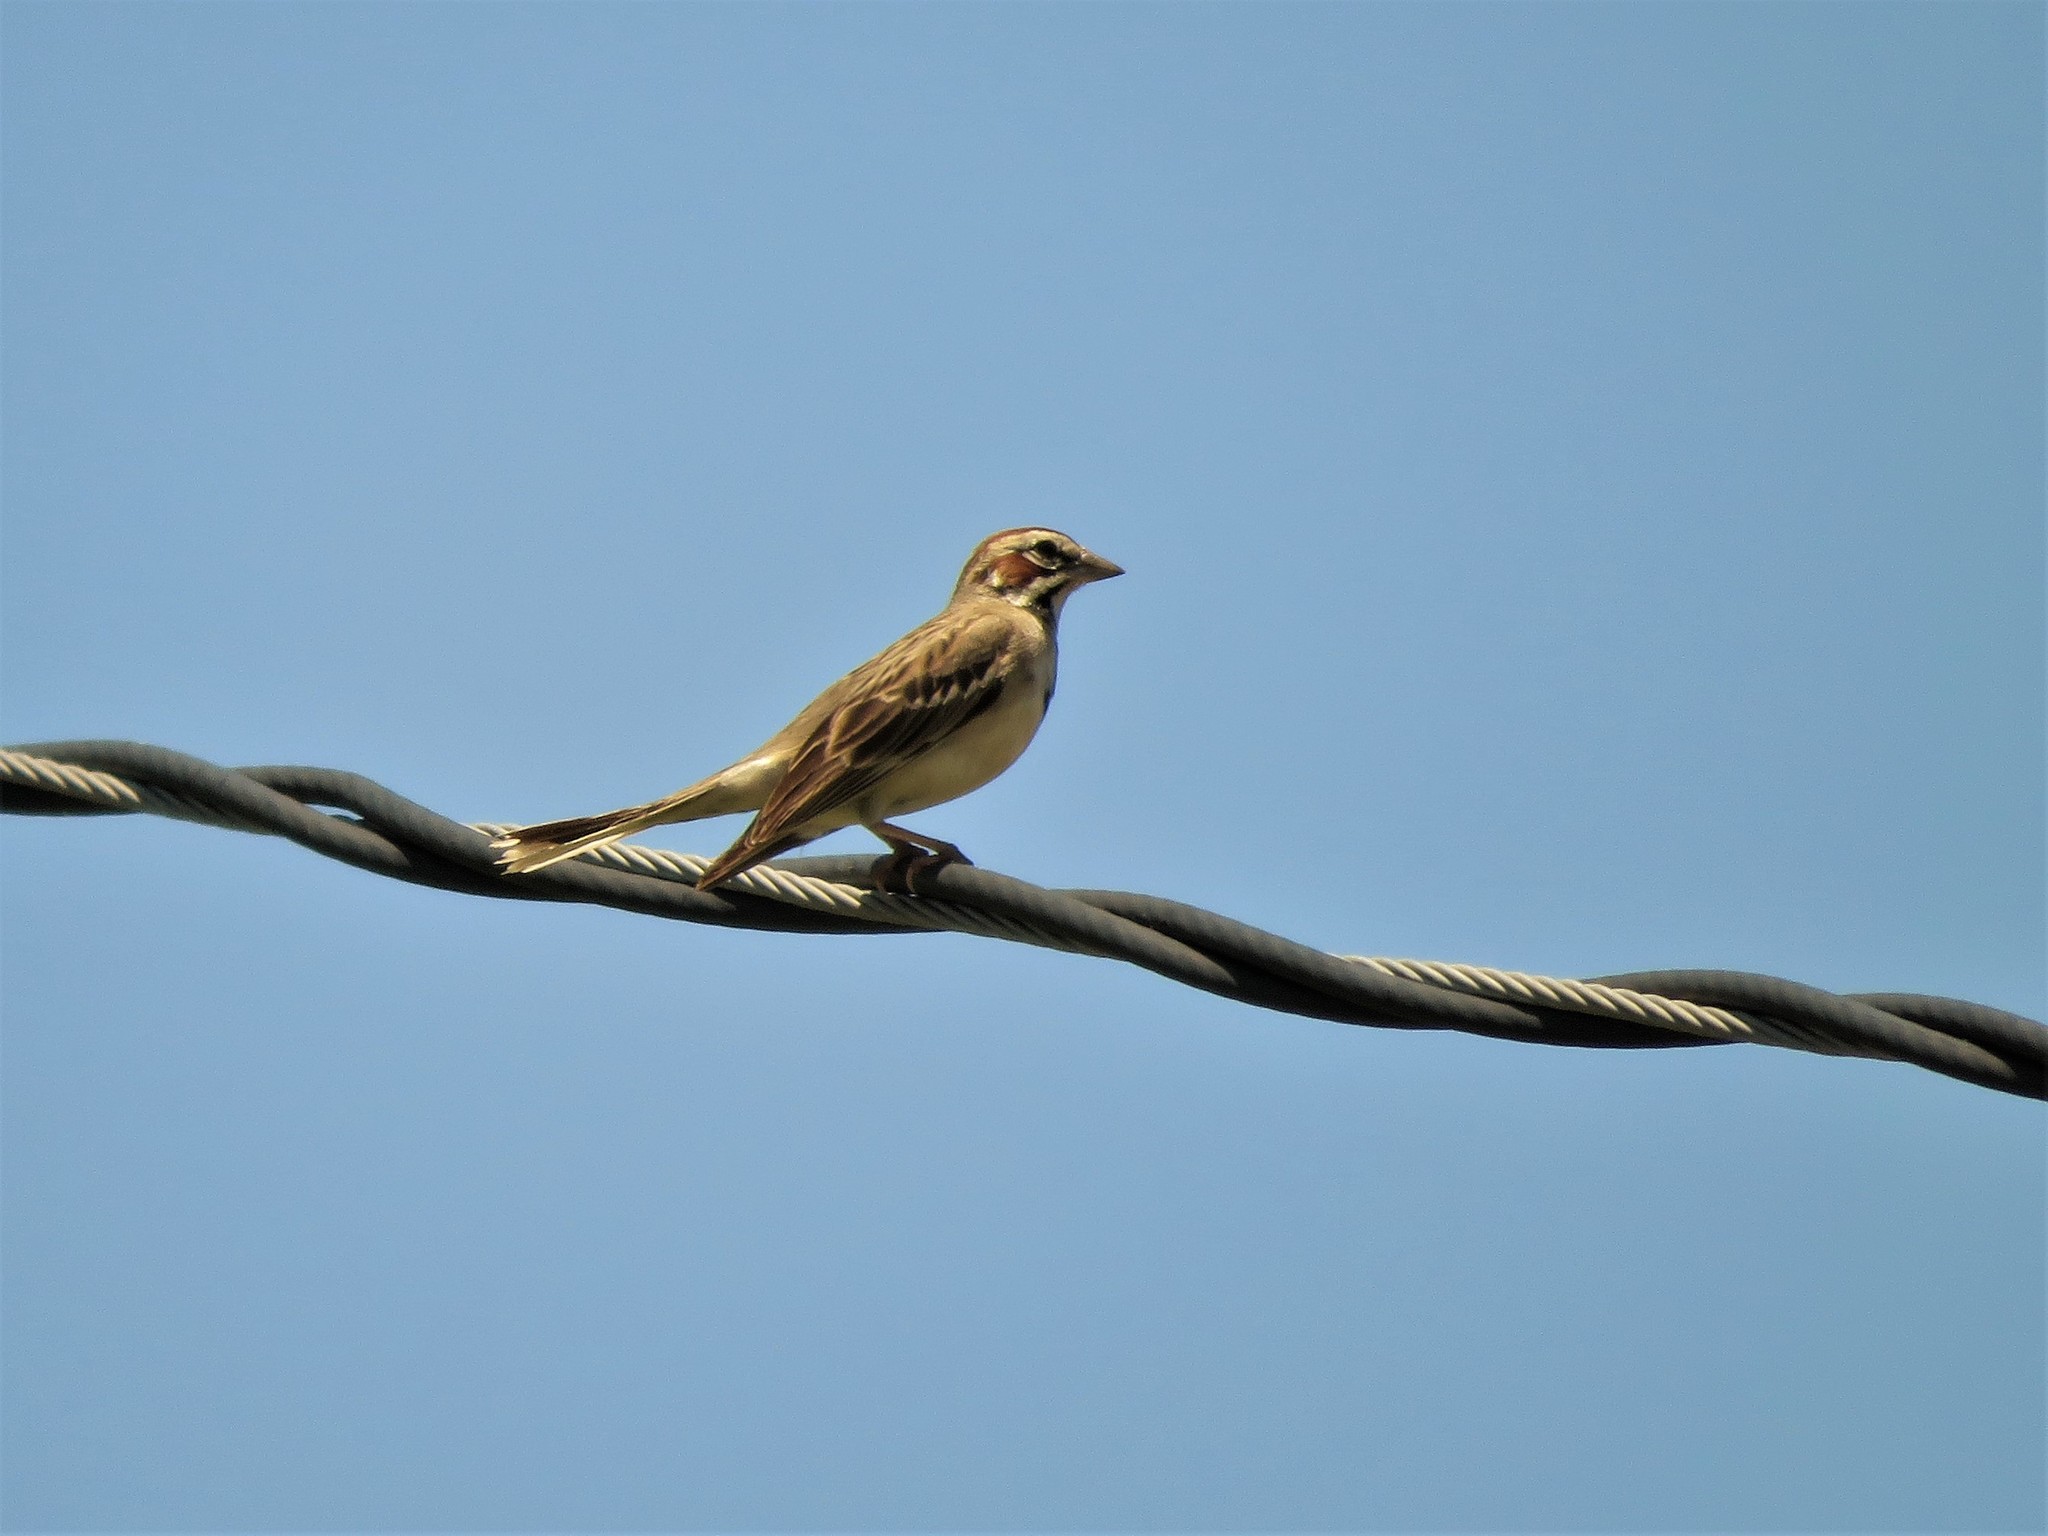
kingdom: Animalia
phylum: Chordata
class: Aves
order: Passeriformes
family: Passerellidae
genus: Chondestes
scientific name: Chondestes grammacus
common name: Lark sparrow
